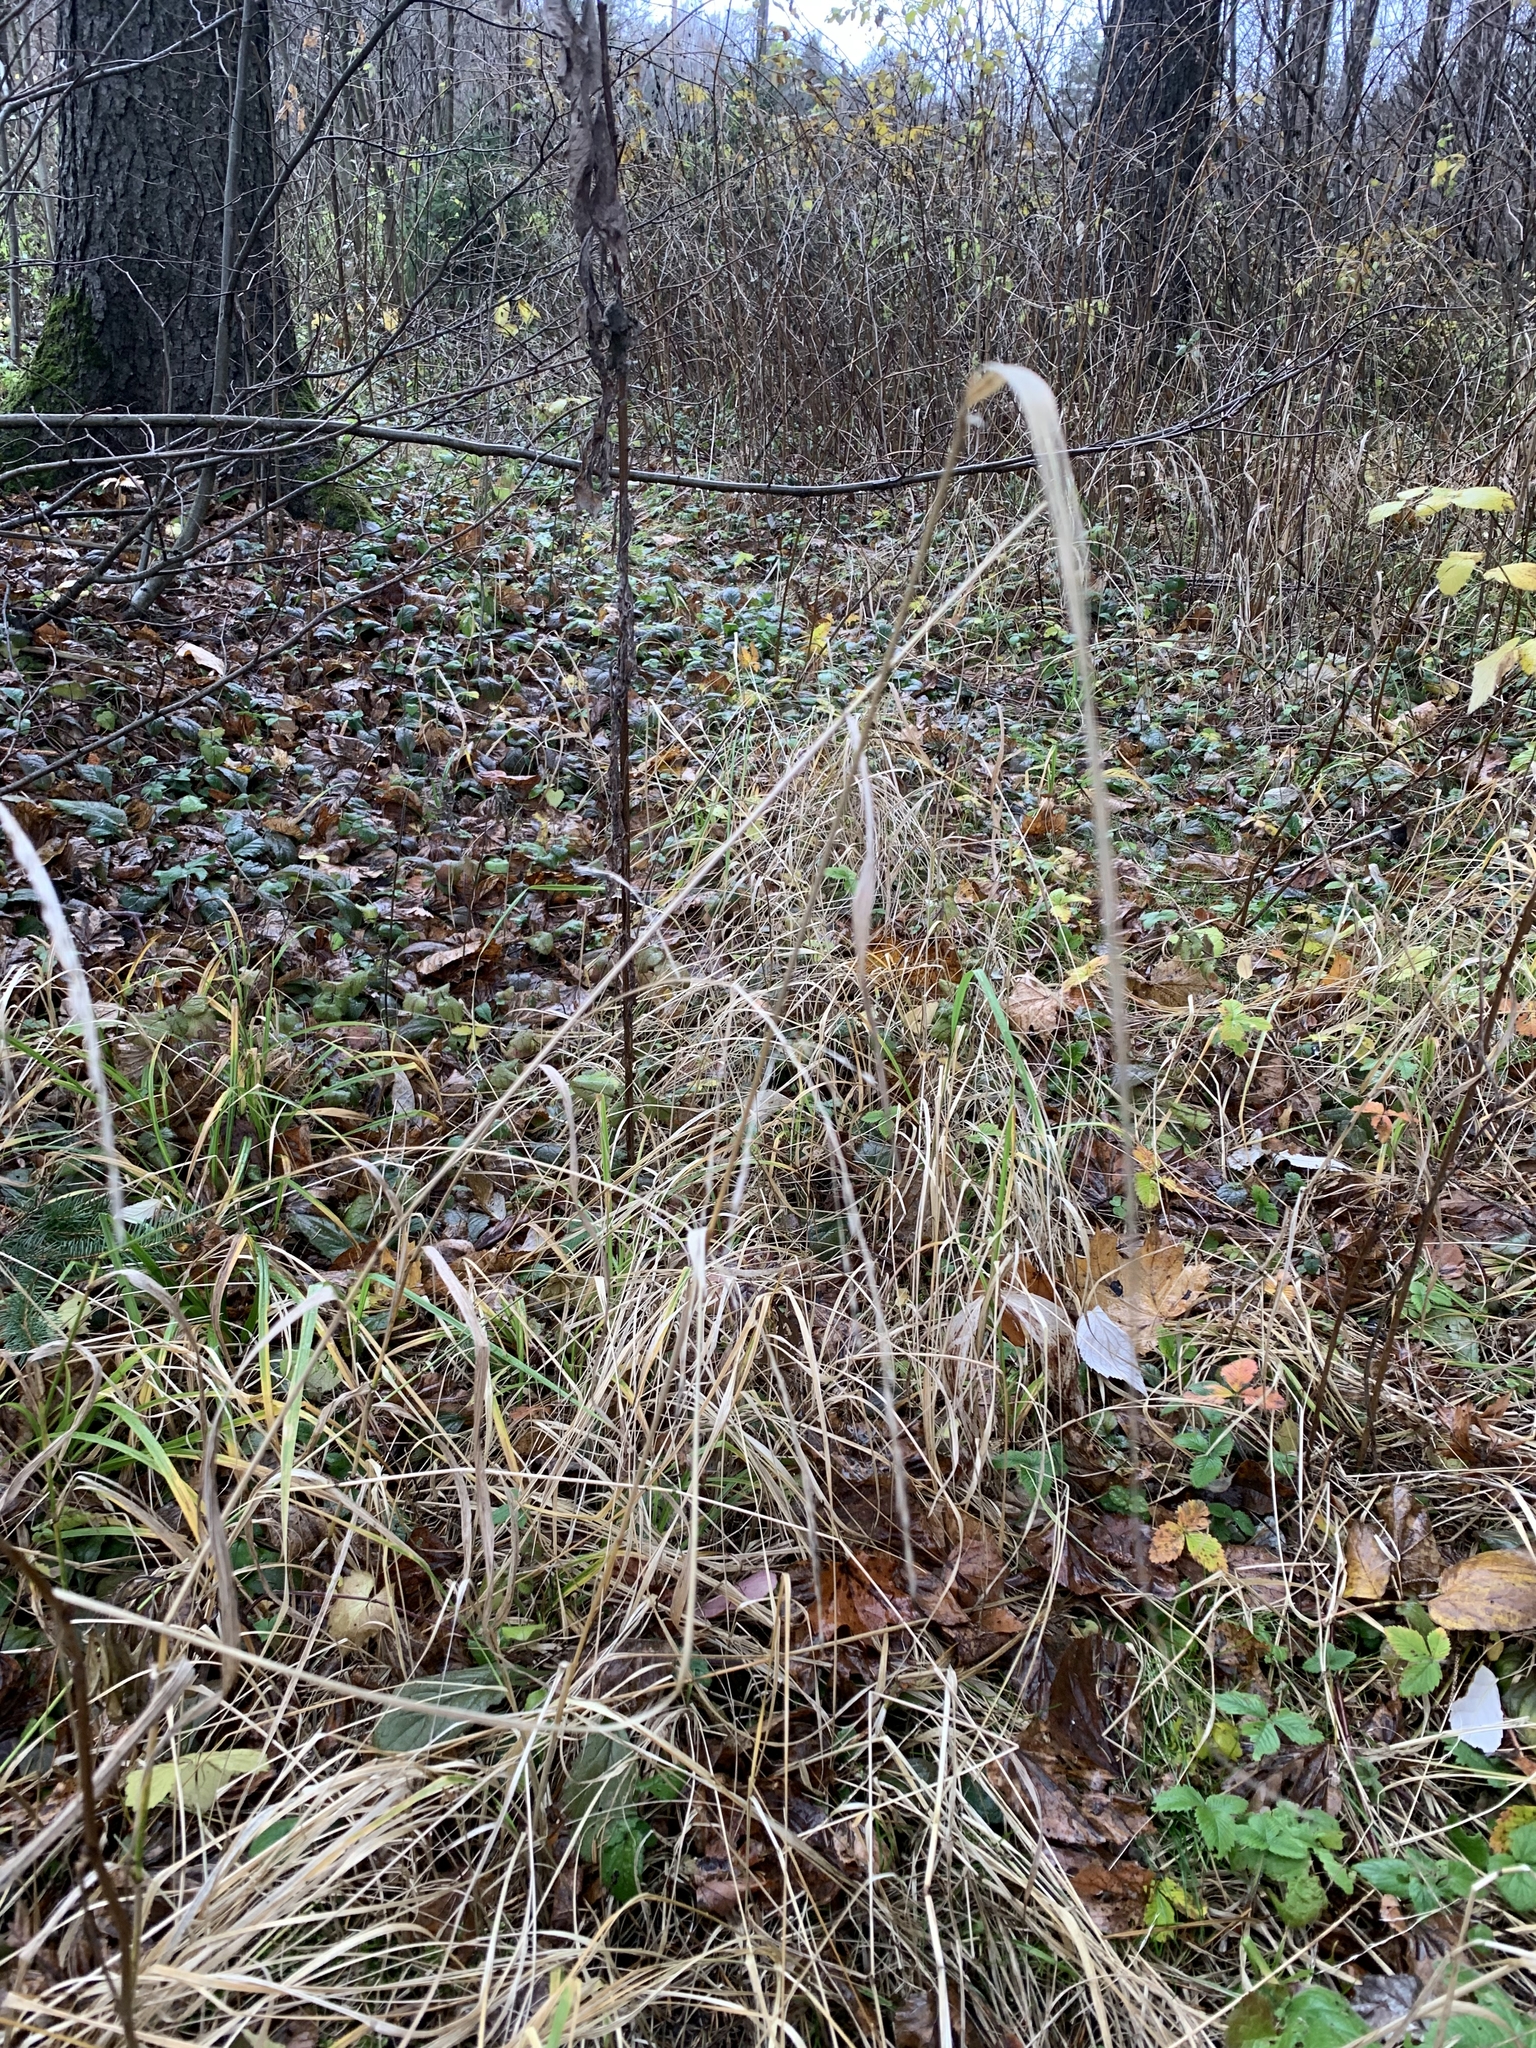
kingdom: Plantae
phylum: Tracheophyta
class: Liliopsida
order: Poales
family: Poaceae
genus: Lolium
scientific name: Lolium giganteum
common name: Giant fescue
